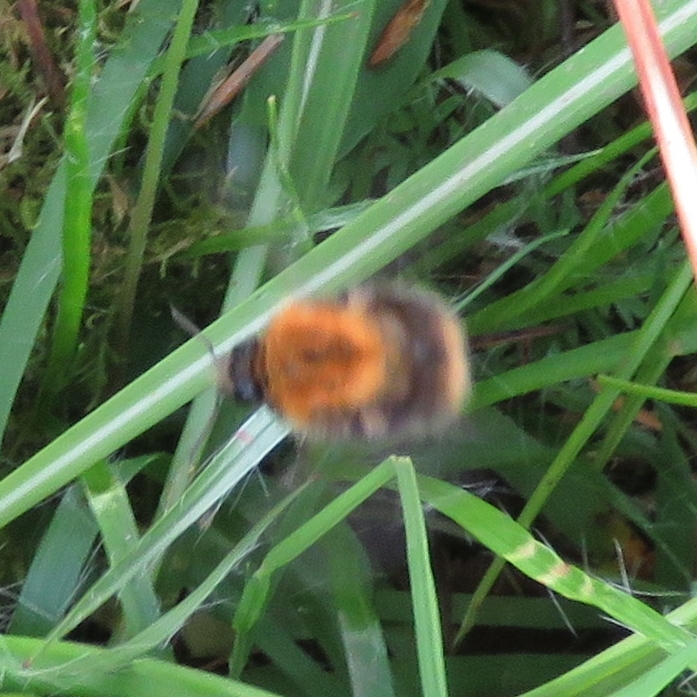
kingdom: Animalia
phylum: Arthropoda
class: Insecta
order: Hymenoptera
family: Apidae
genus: Bombus
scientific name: Bombus pascuorum
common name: Common carder bee
